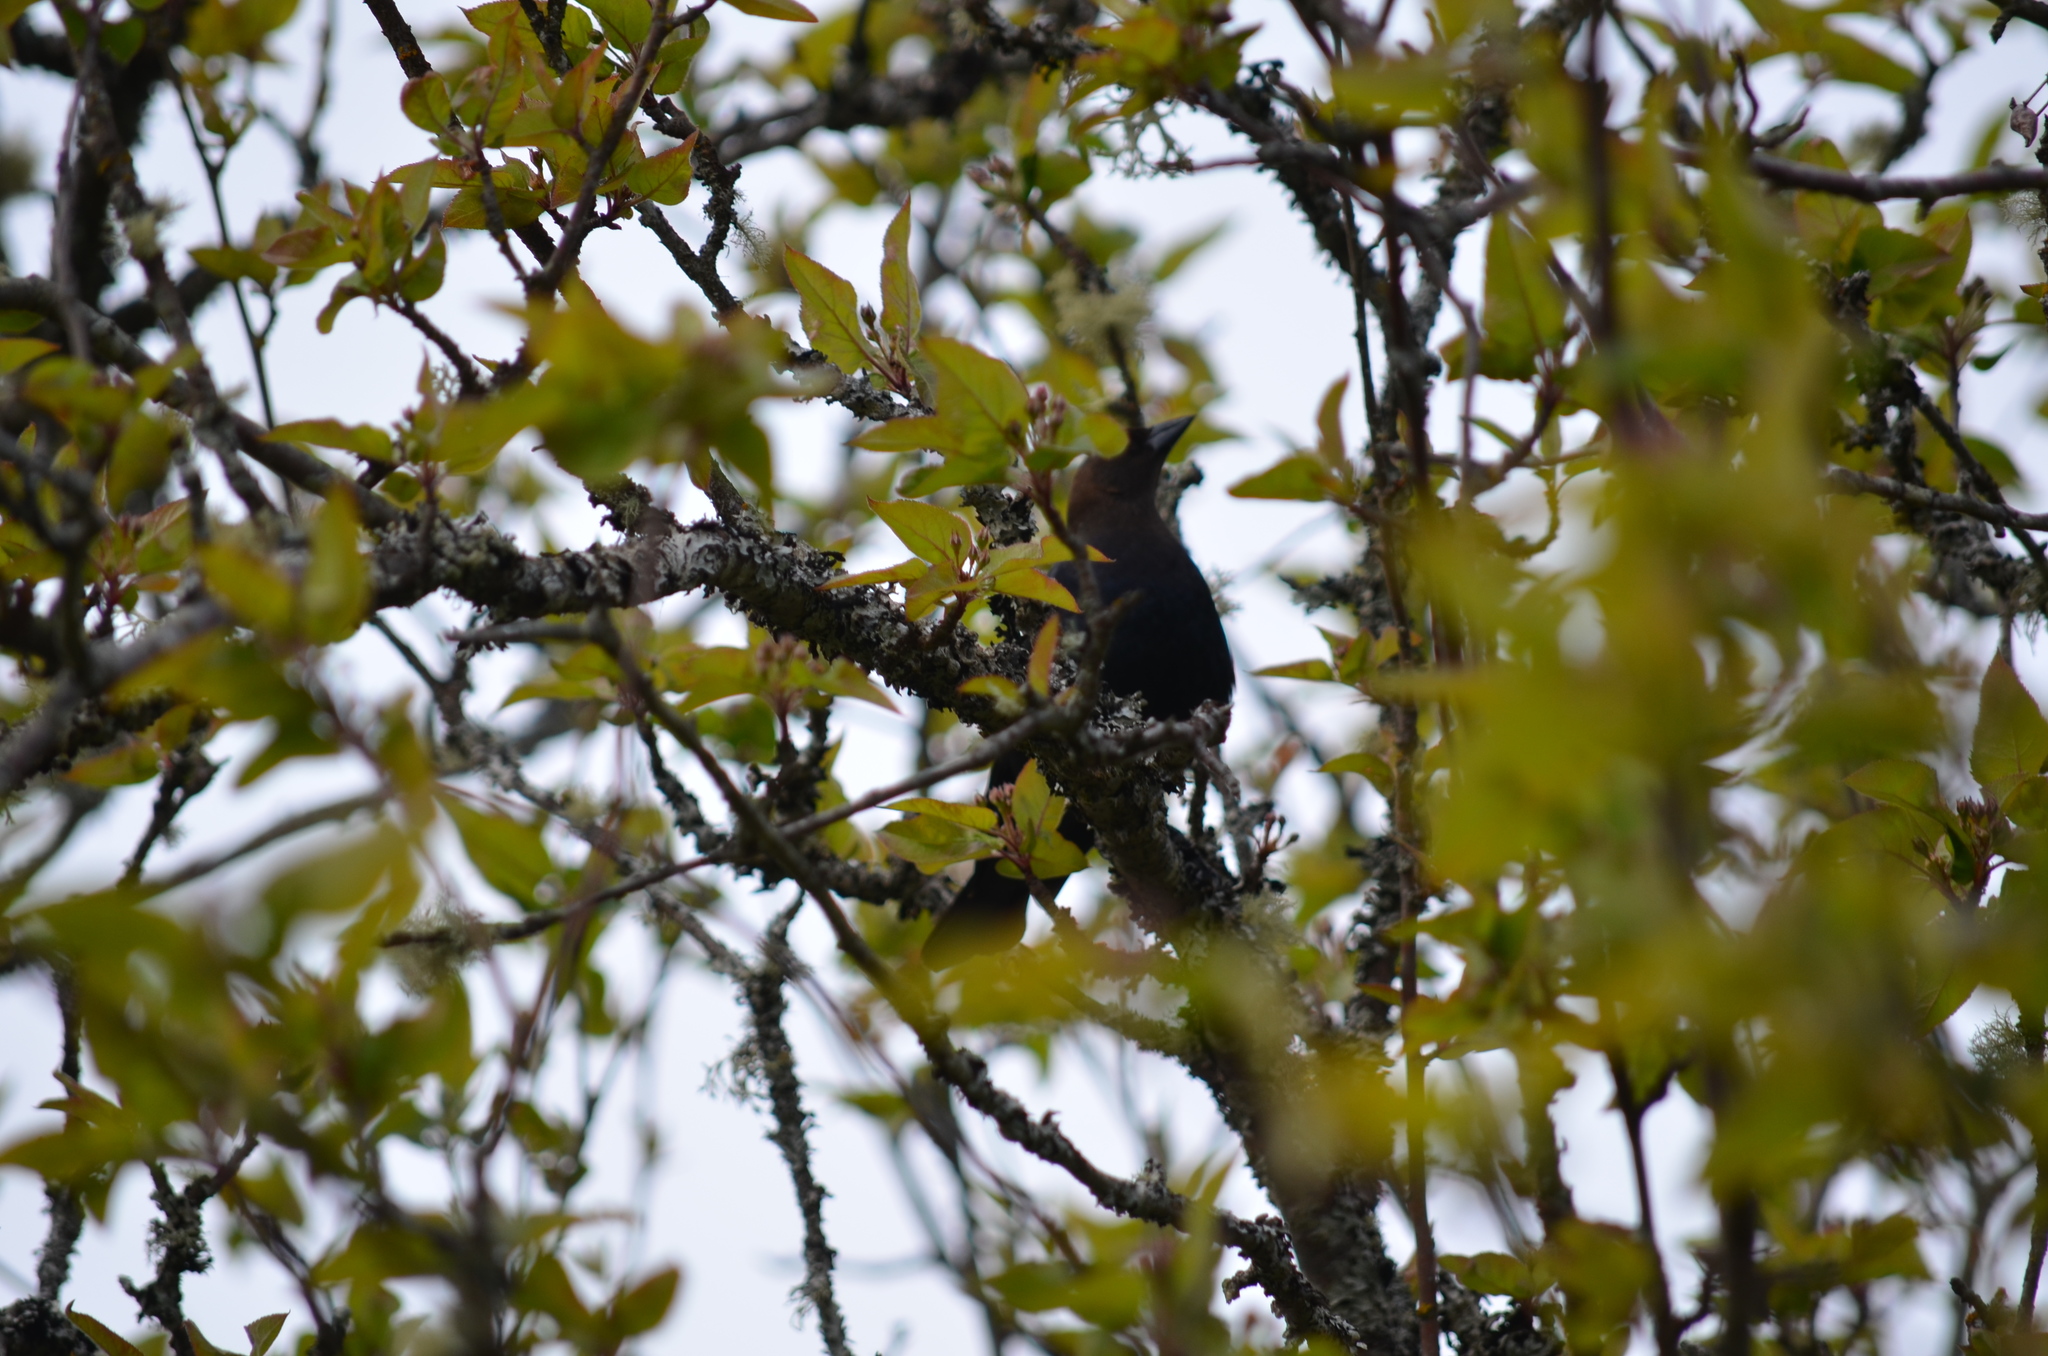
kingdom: Animalia
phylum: Chordata
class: Aves
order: Passeriformes
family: Icteridae
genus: Molothrus
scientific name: Molothrus ater
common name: Brown-headed cowbird
